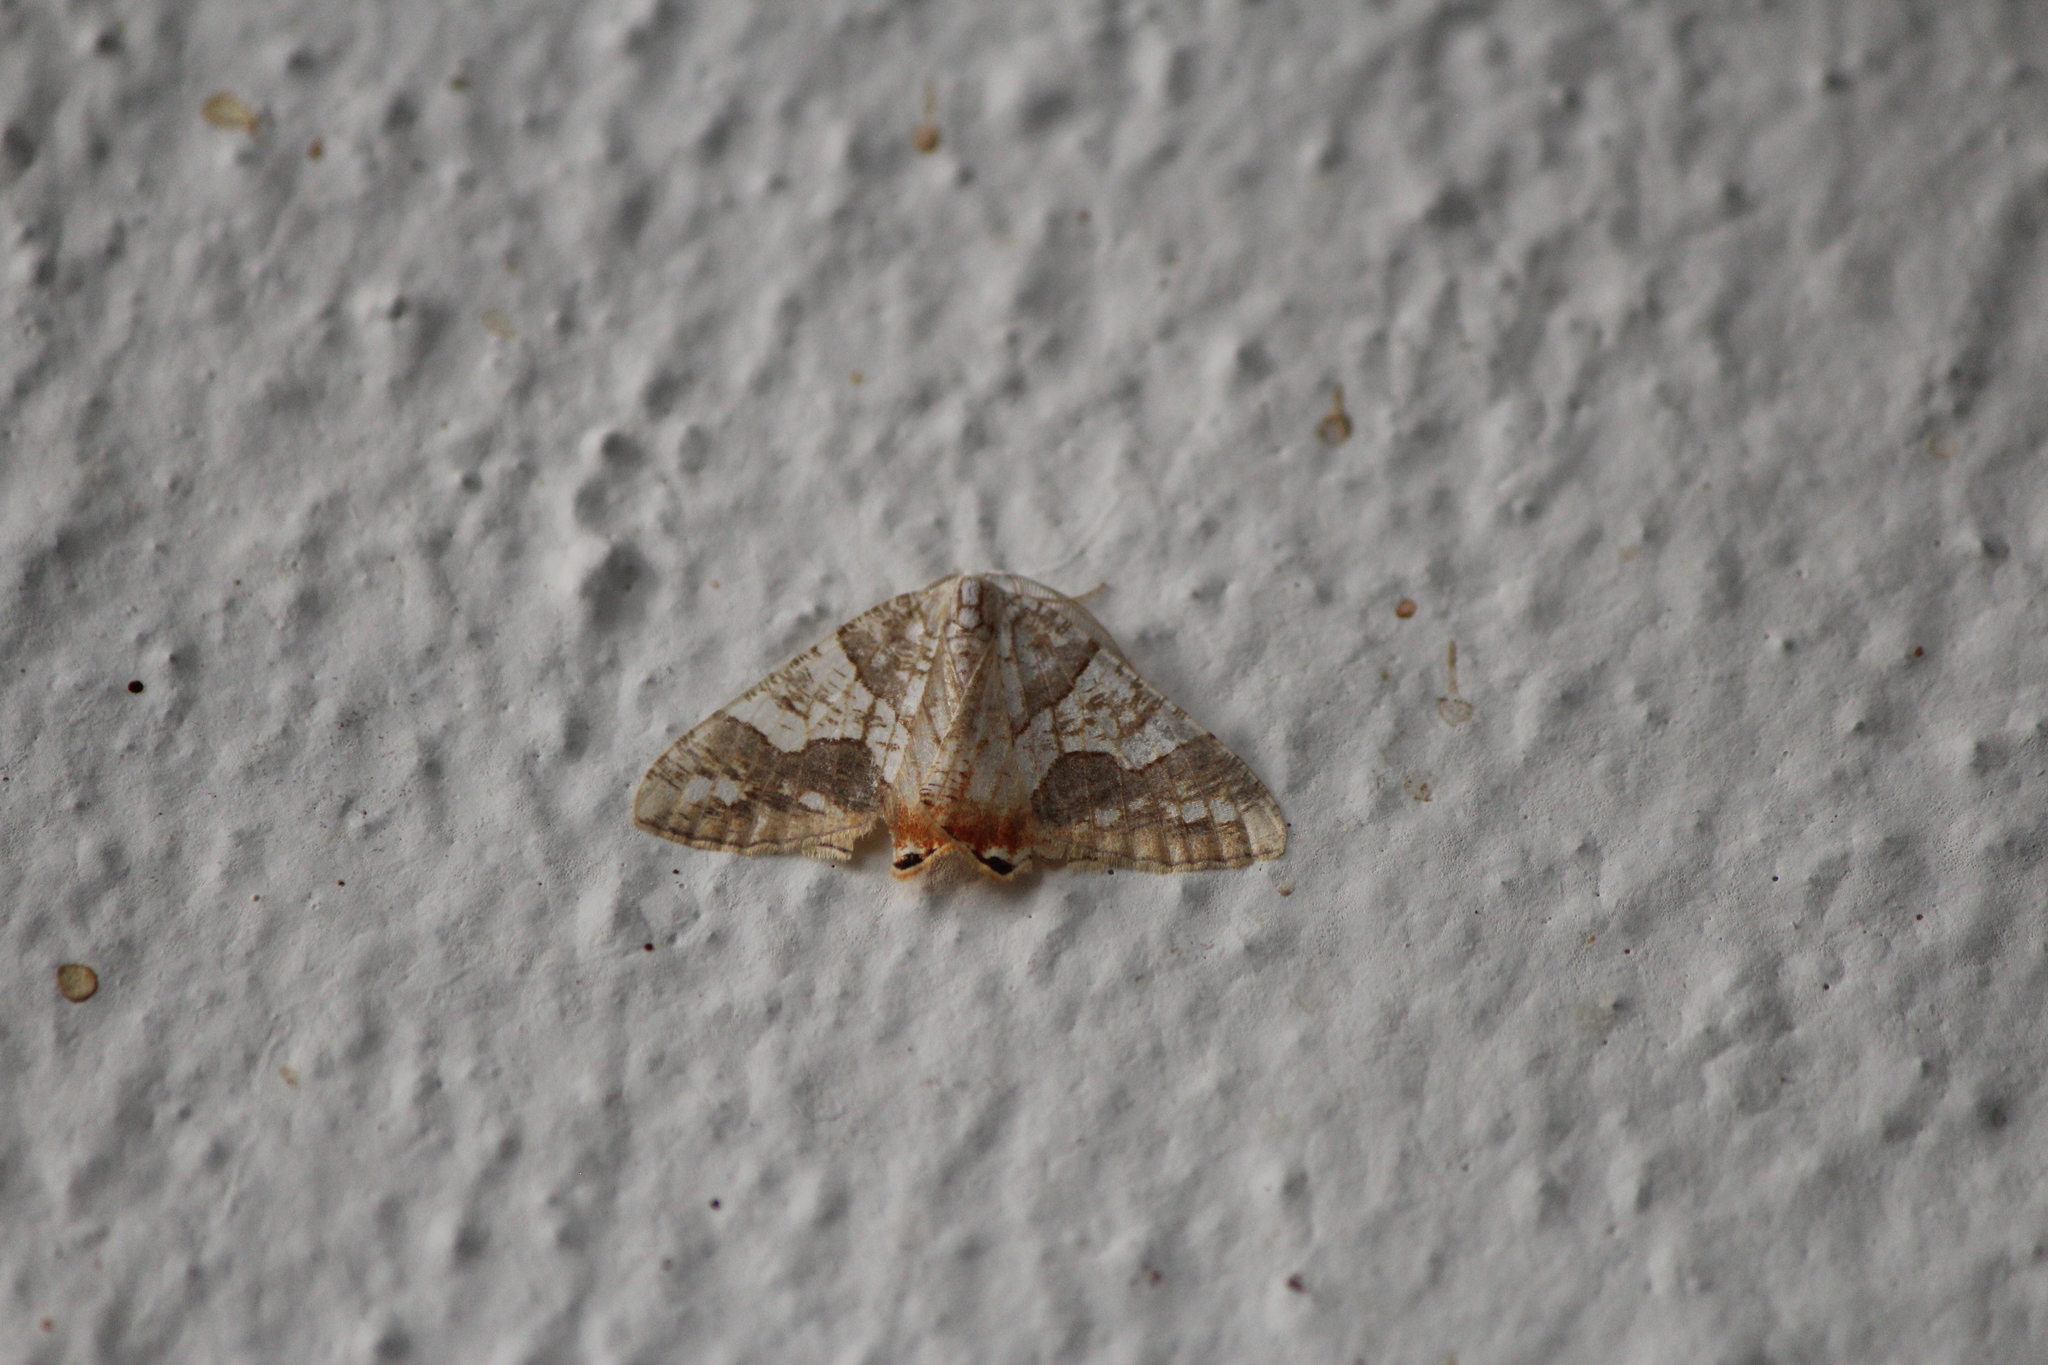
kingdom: Animalia
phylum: Arthropoda
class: Insecta
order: Lepidoptera
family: Geometridae
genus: Rindgeria
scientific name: Rindgeria ornata
